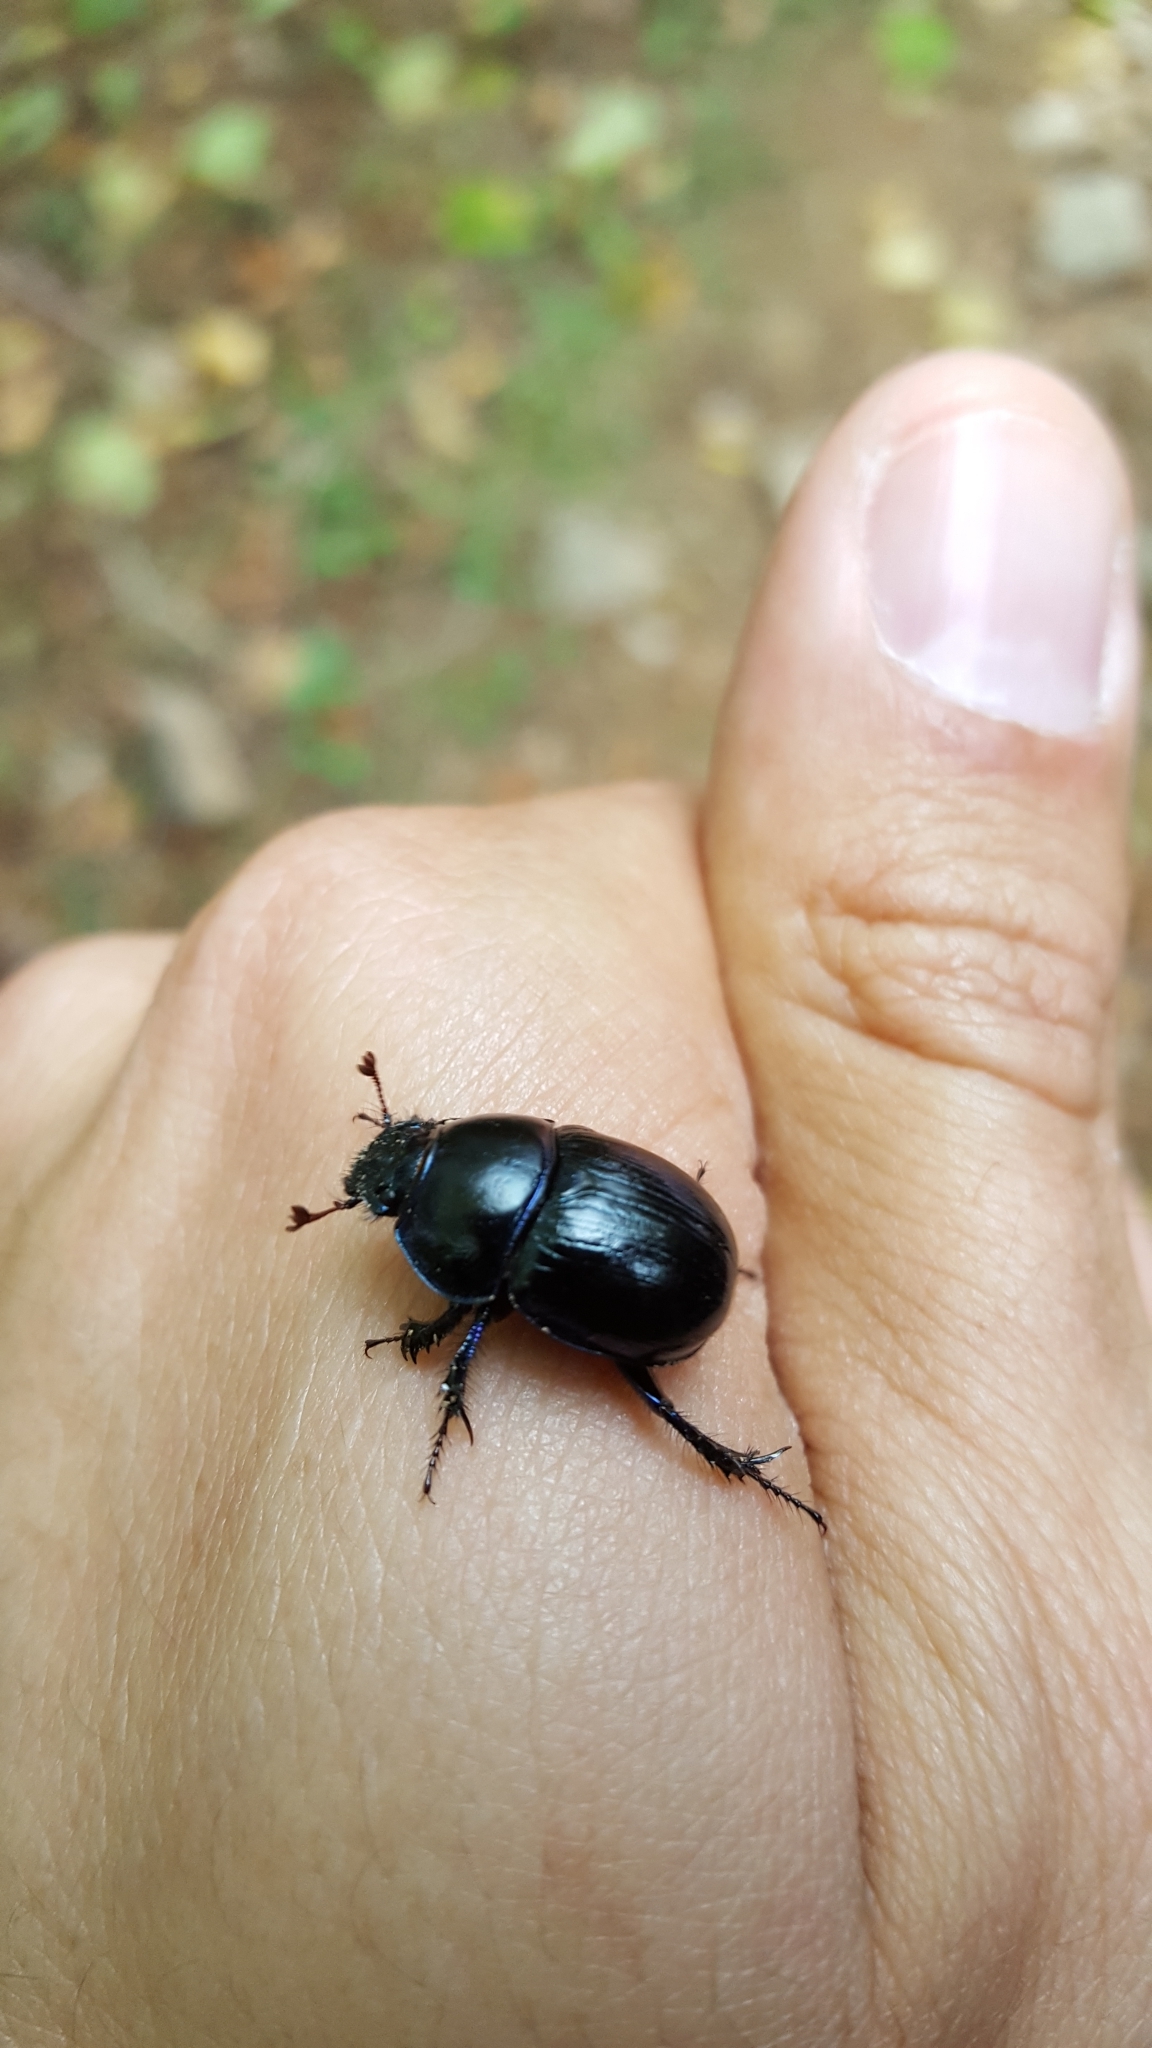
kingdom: Animalia
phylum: Arthropoda
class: Insecta
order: Coleoptera
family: Geotrupidae
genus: Geotrupes
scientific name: Geotrupes stercorarius
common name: Earth-boring dung beetle
